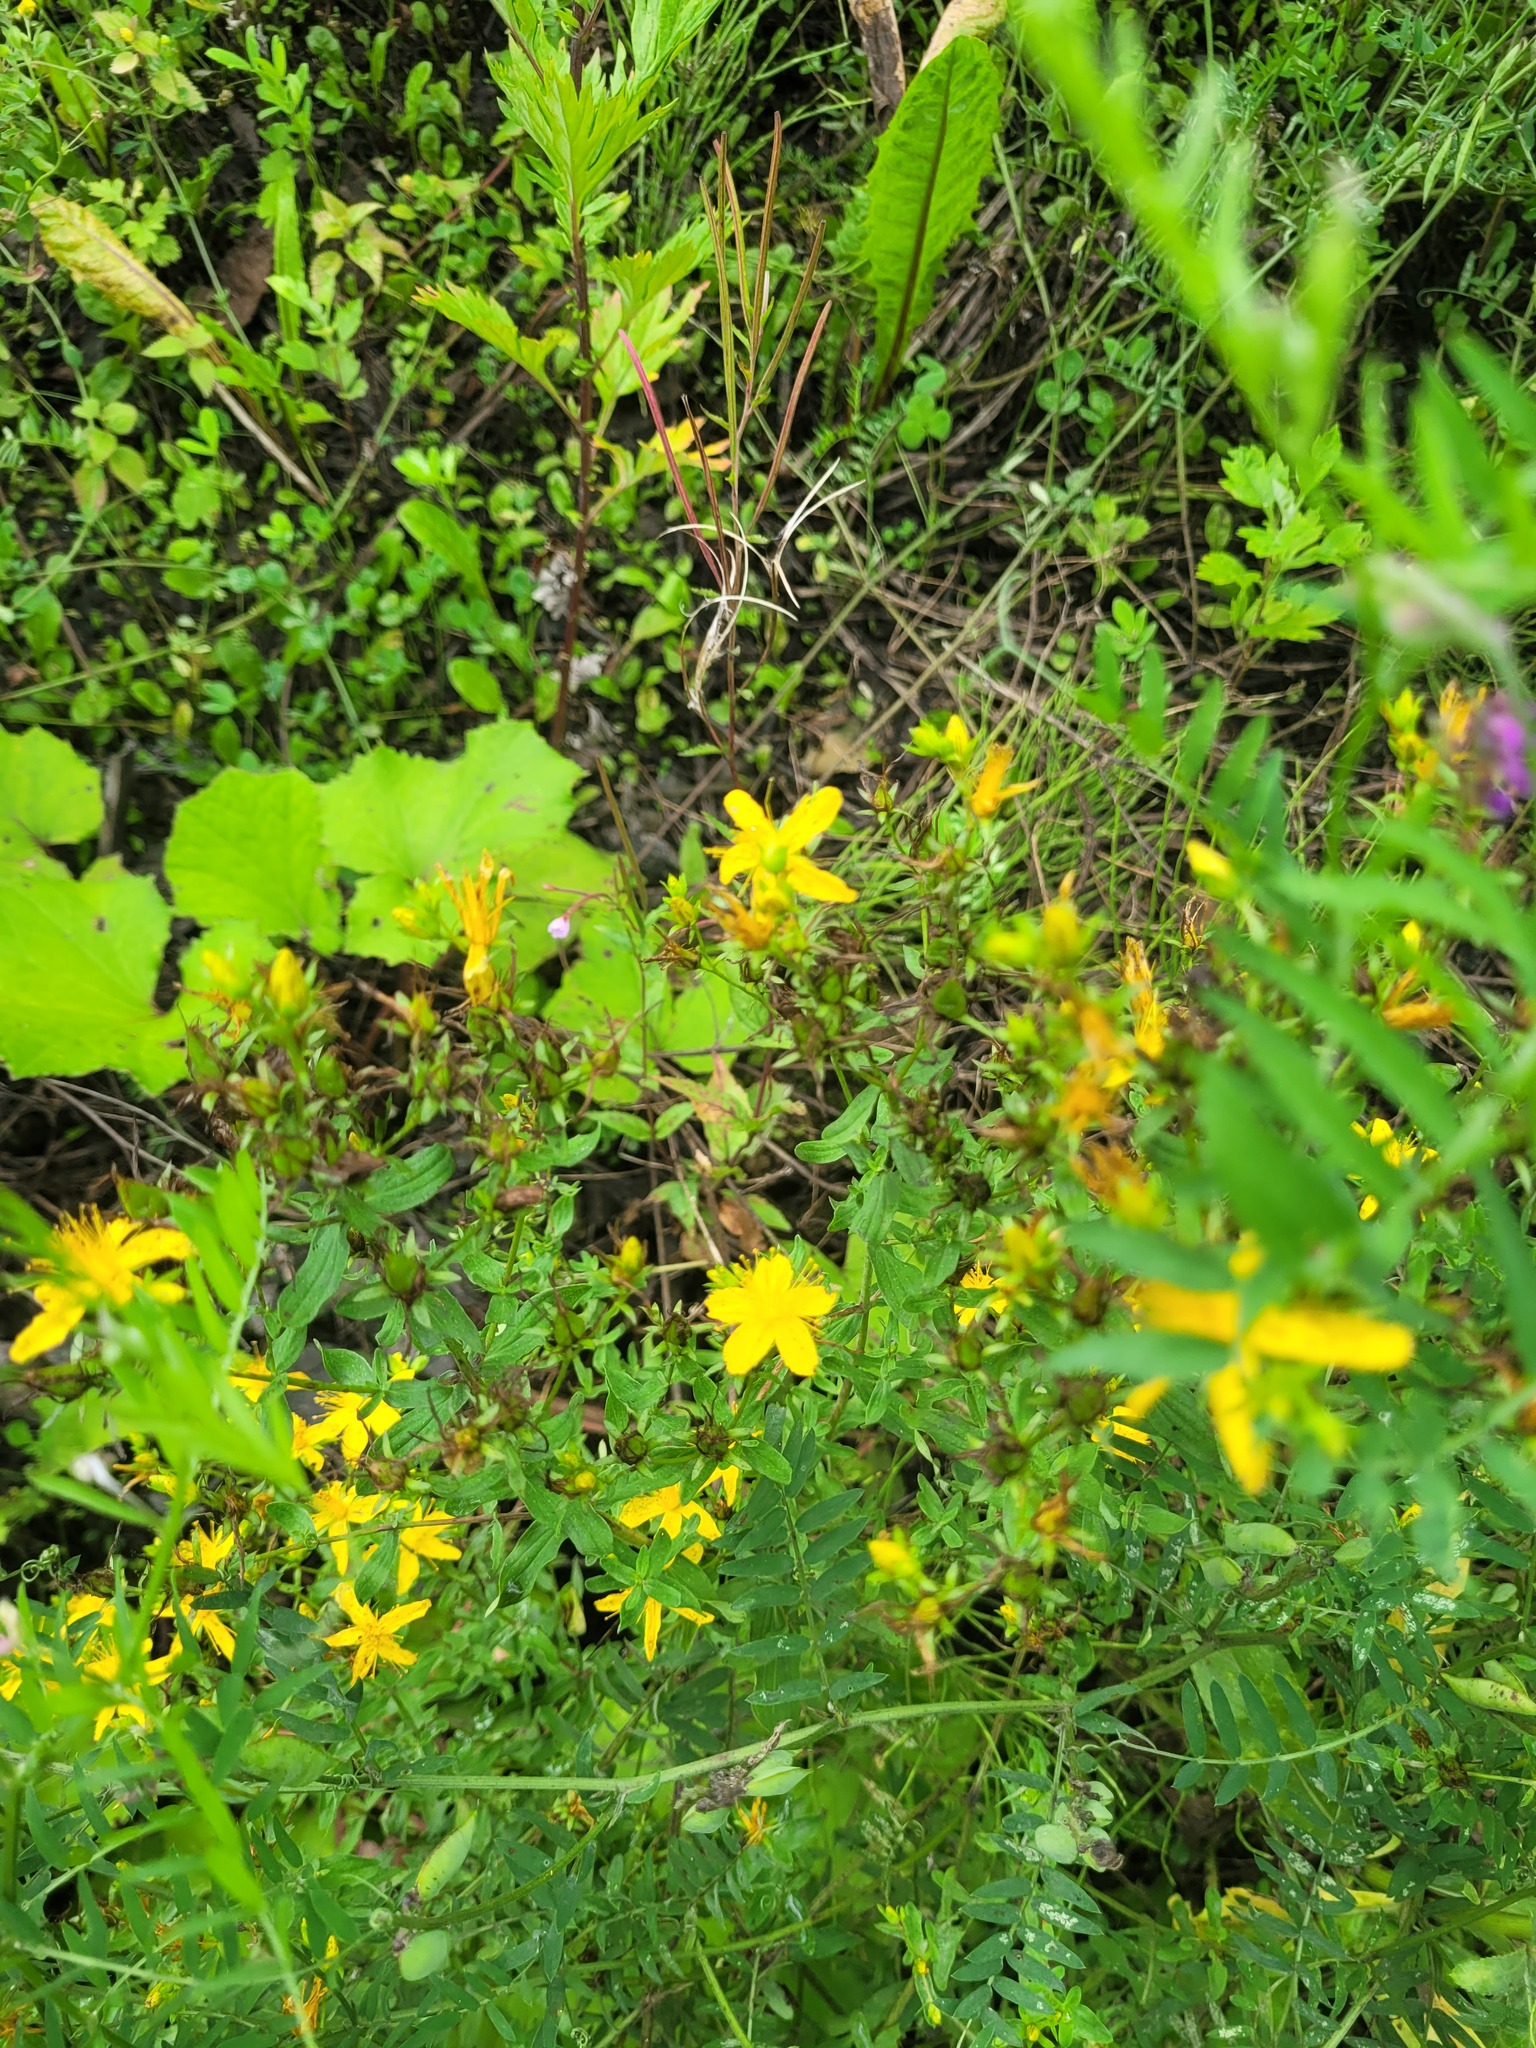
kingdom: Plantae
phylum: Tracheophyta
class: Magnoliopsida
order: Malpighiales
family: Hypericaceae
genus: Hypericum
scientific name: Hypericum perforatum
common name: Common st. johnswort
